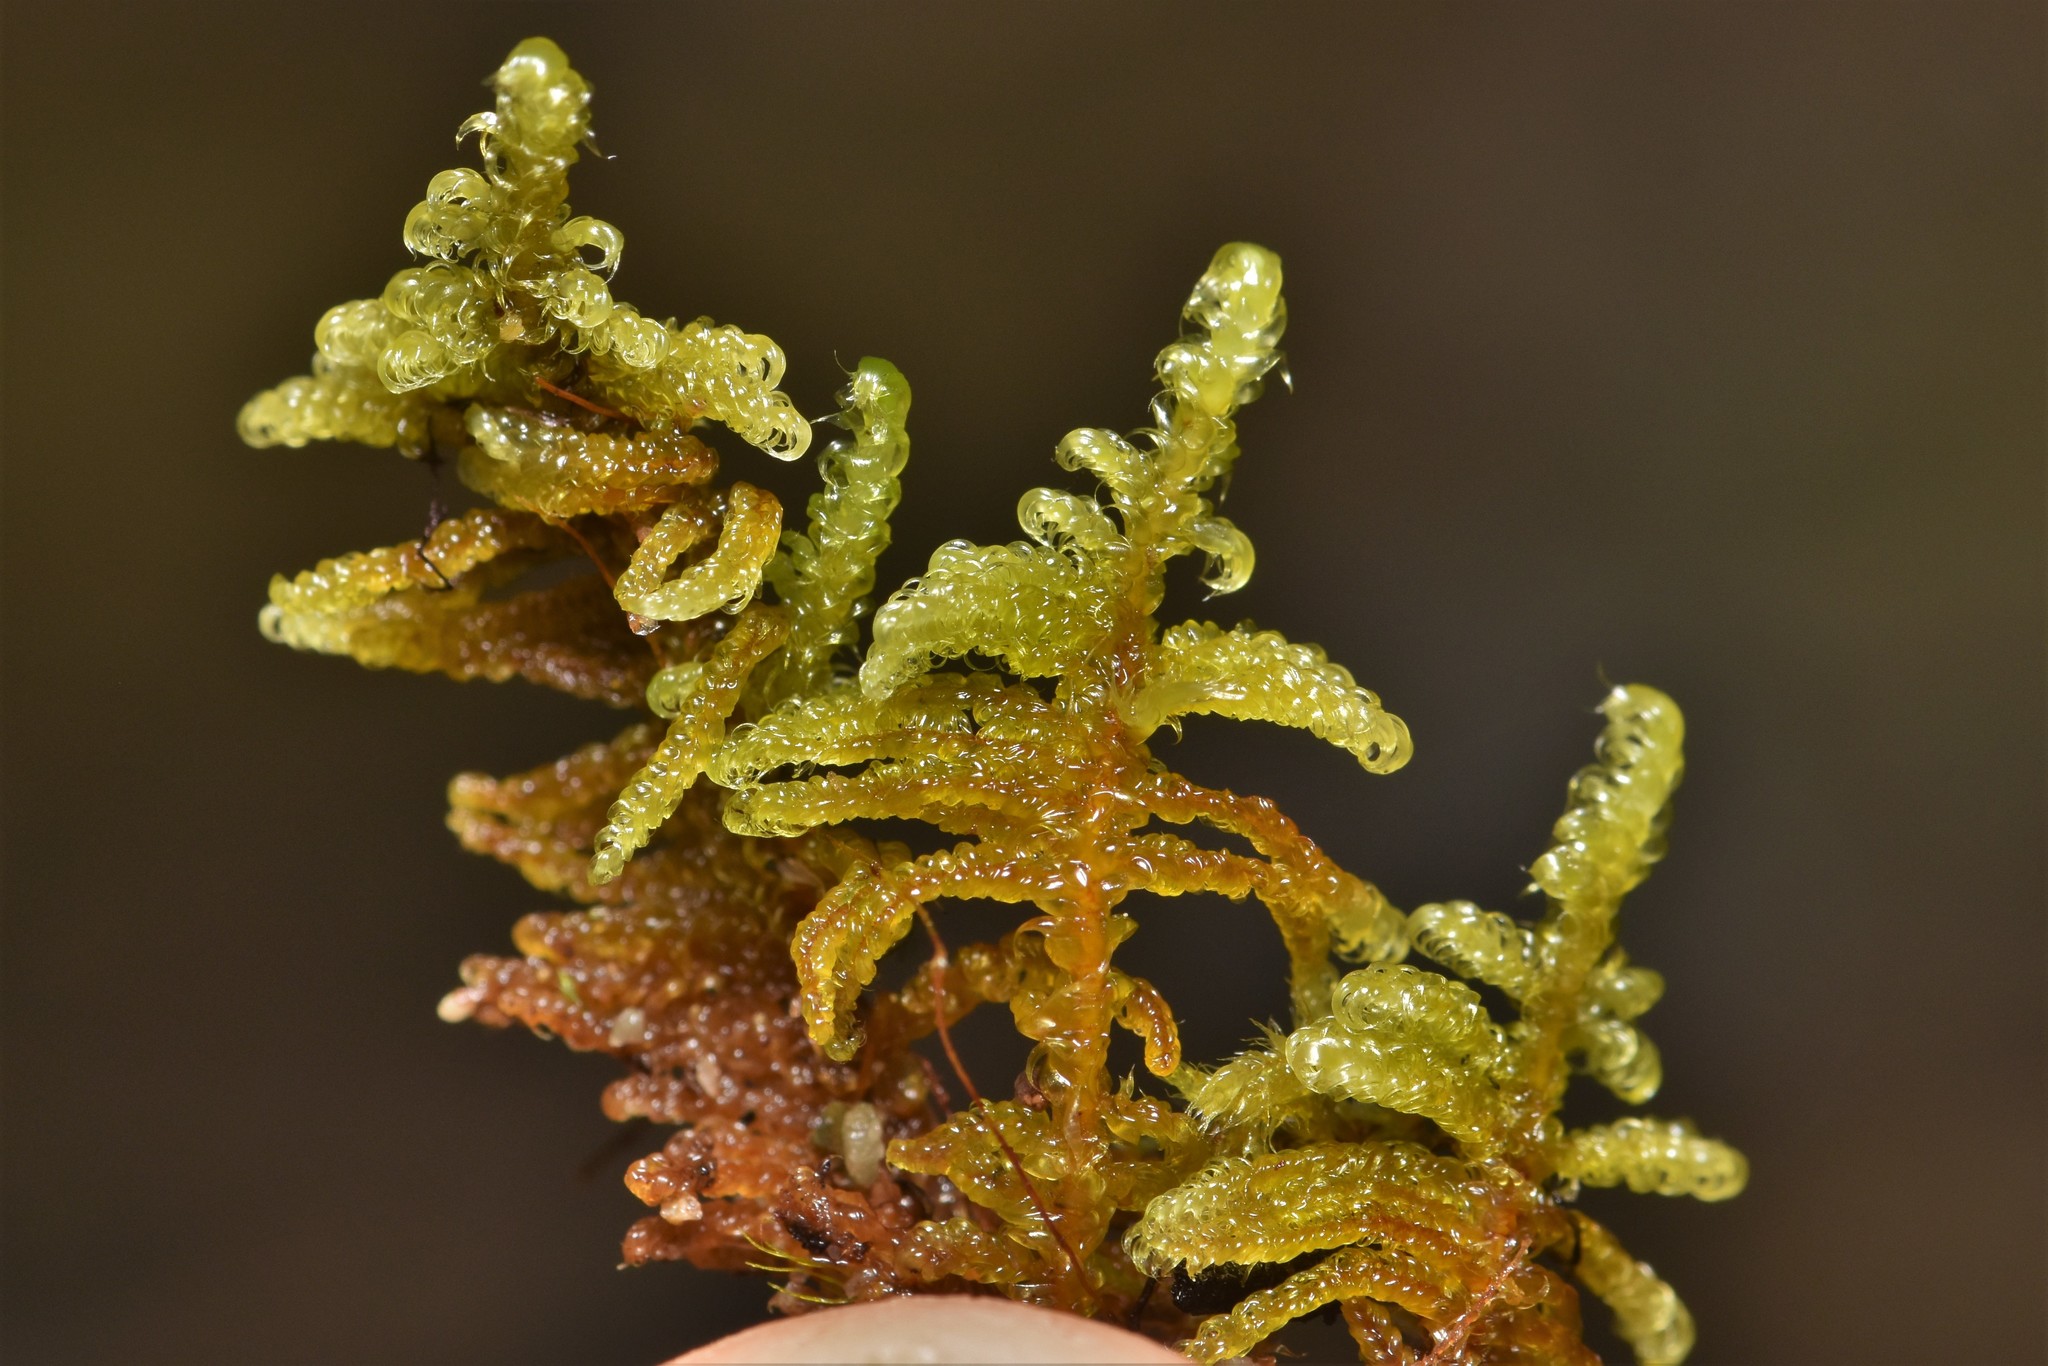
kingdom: Plantae
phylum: Bryophyta
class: Bryopsida
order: Hypnales
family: Pylaisiaceae
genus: Calliergonellopsis
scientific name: Calliergonellopsis dieckii
